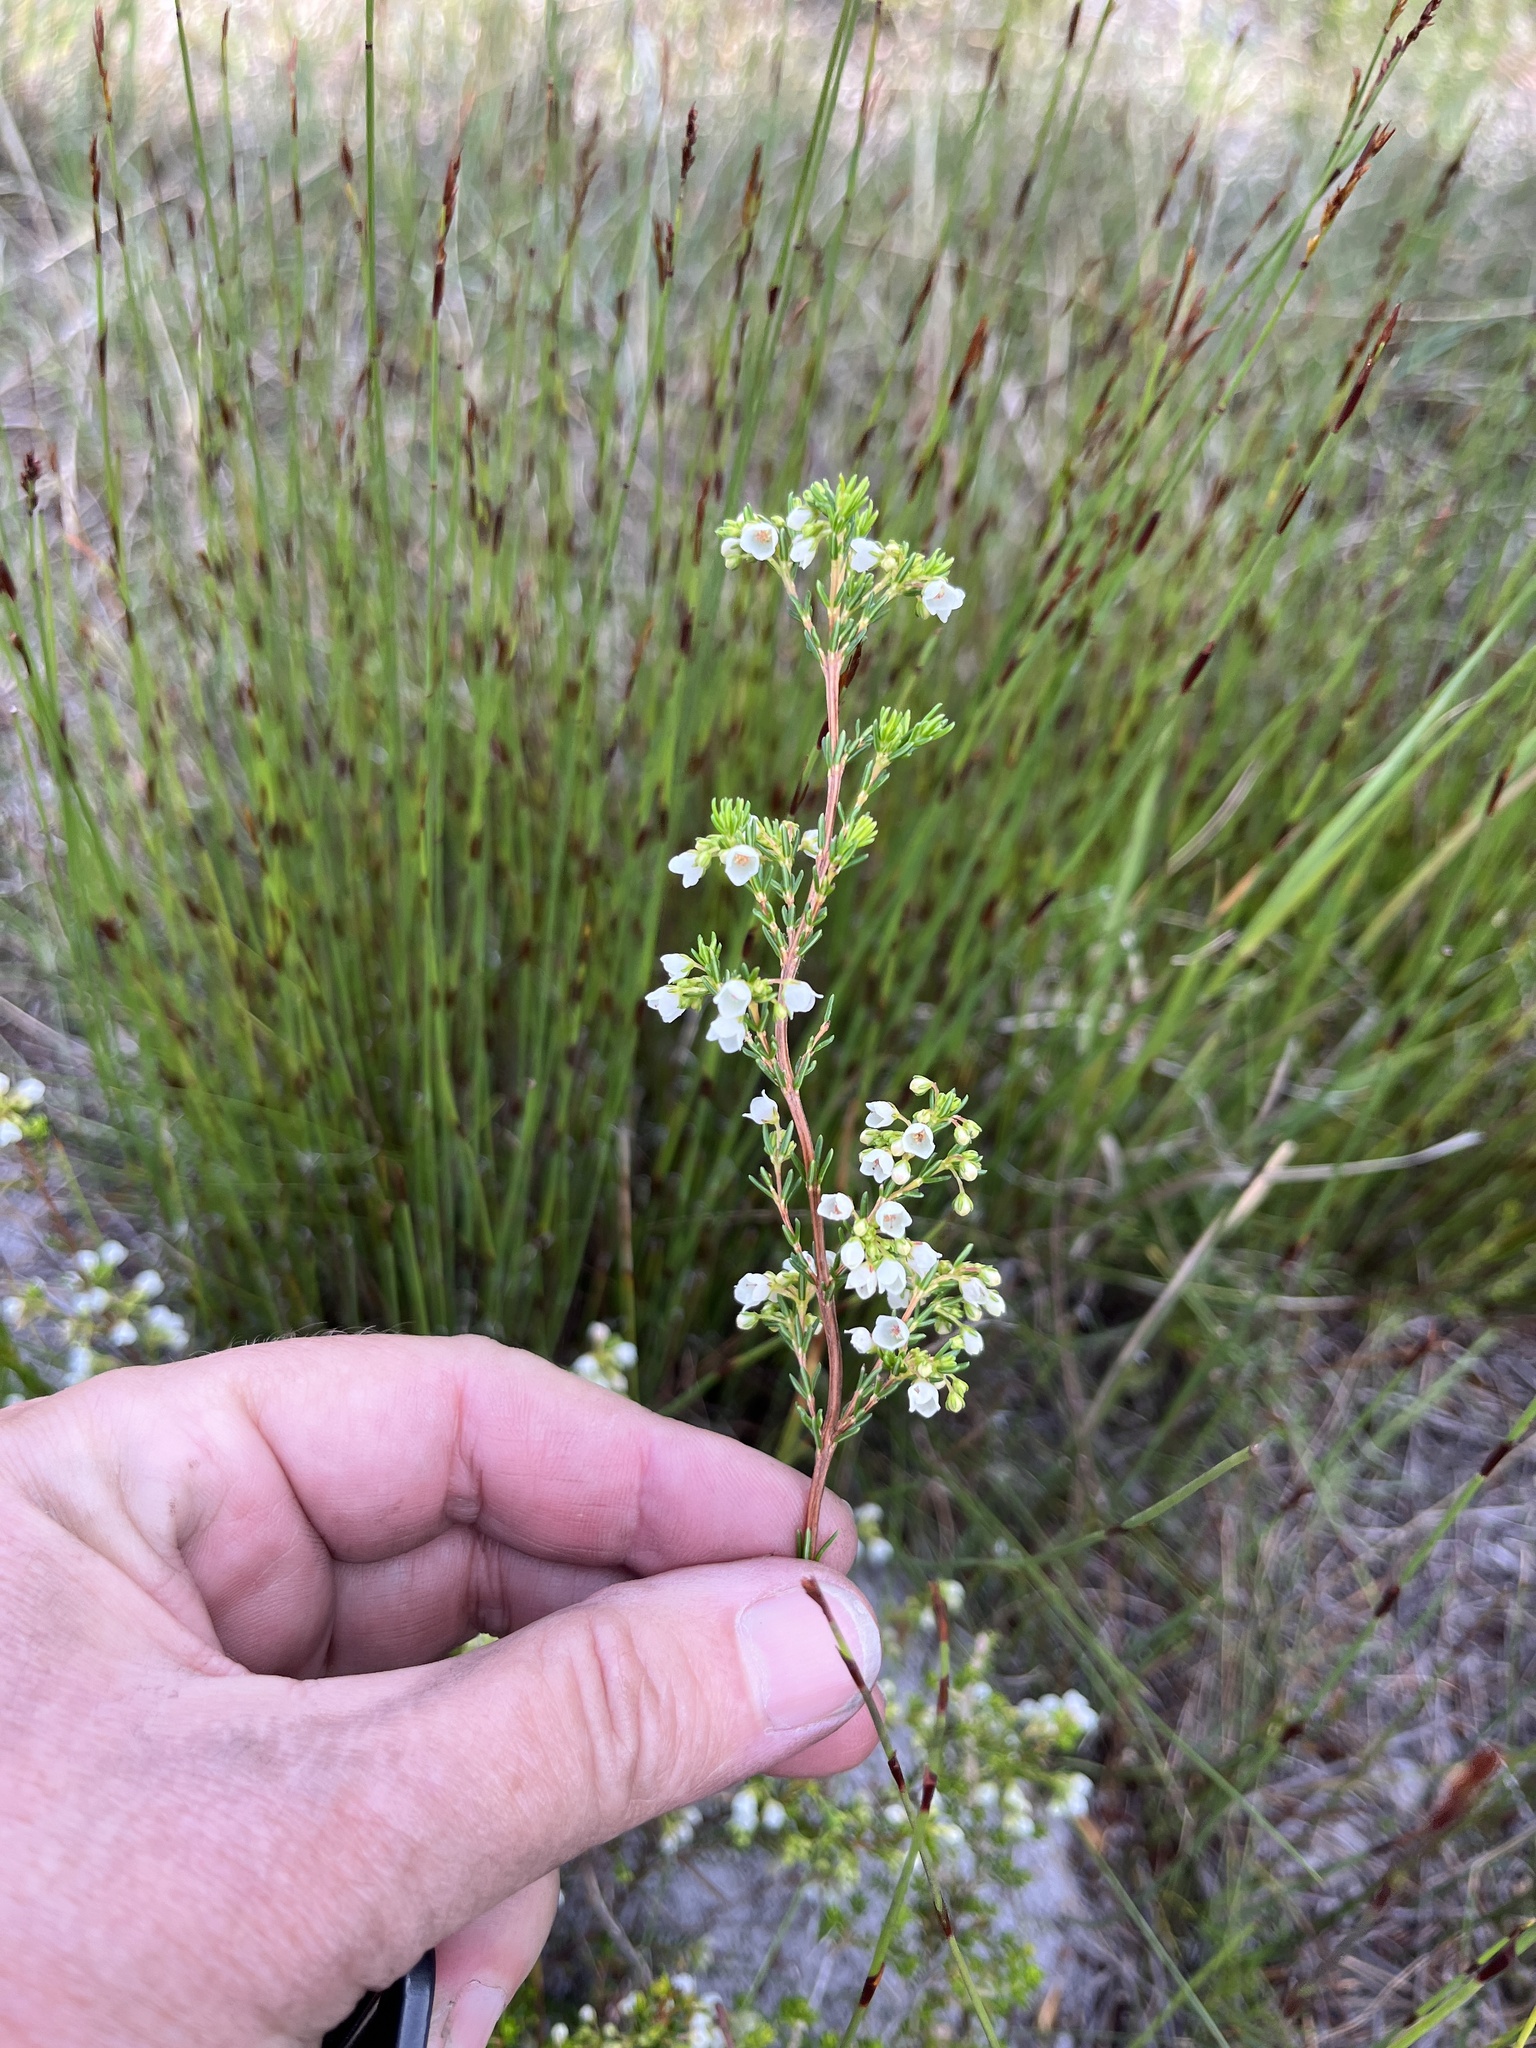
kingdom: Plantae
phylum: Tracheophyta
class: Magnoliopsida
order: Ericales
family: Ericaceae
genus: Erica
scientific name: Erica subdivaricata
